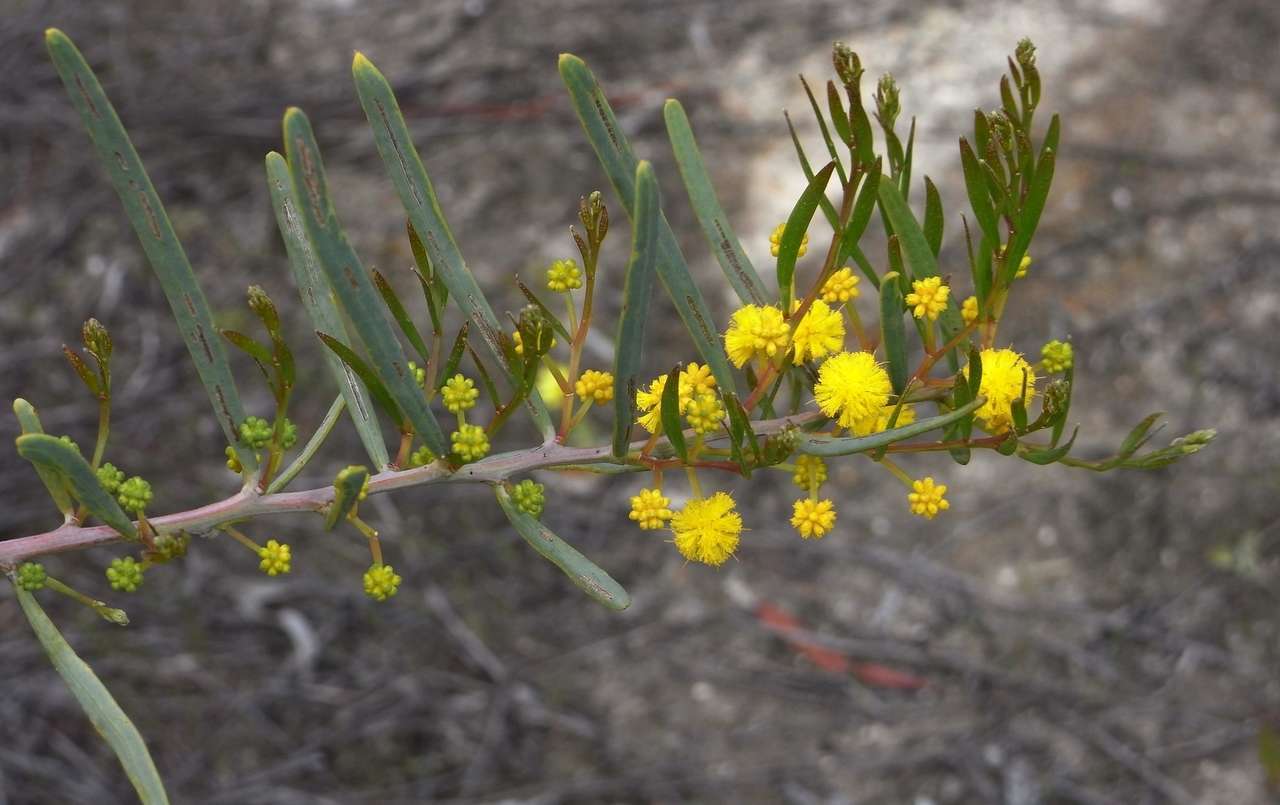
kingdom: Plantae
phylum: Tracheophyta
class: Magnoliopsida
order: Fabales
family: Fabaceae
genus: Acacia
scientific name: Acacia ligulata
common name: Dune wattle
